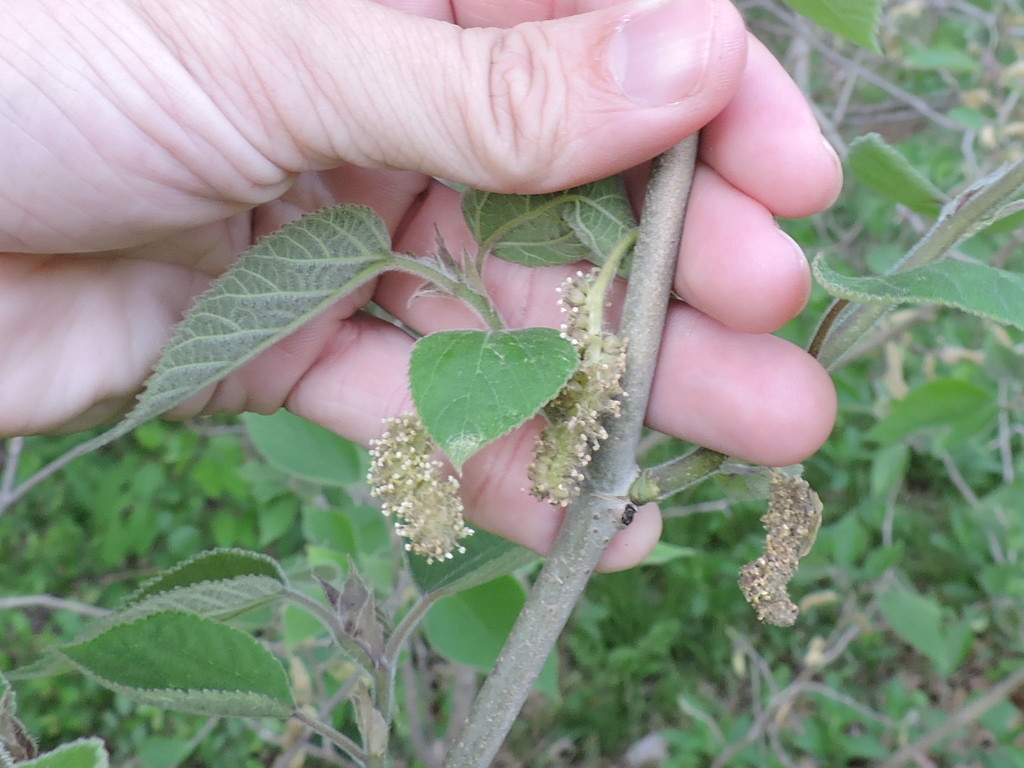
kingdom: Plantae
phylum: Tracheophyta
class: Magnoliopsida
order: Rosales
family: Moraceae
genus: Broussonetia
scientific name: Broussonetia papyrifera
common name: Paper mulberry
